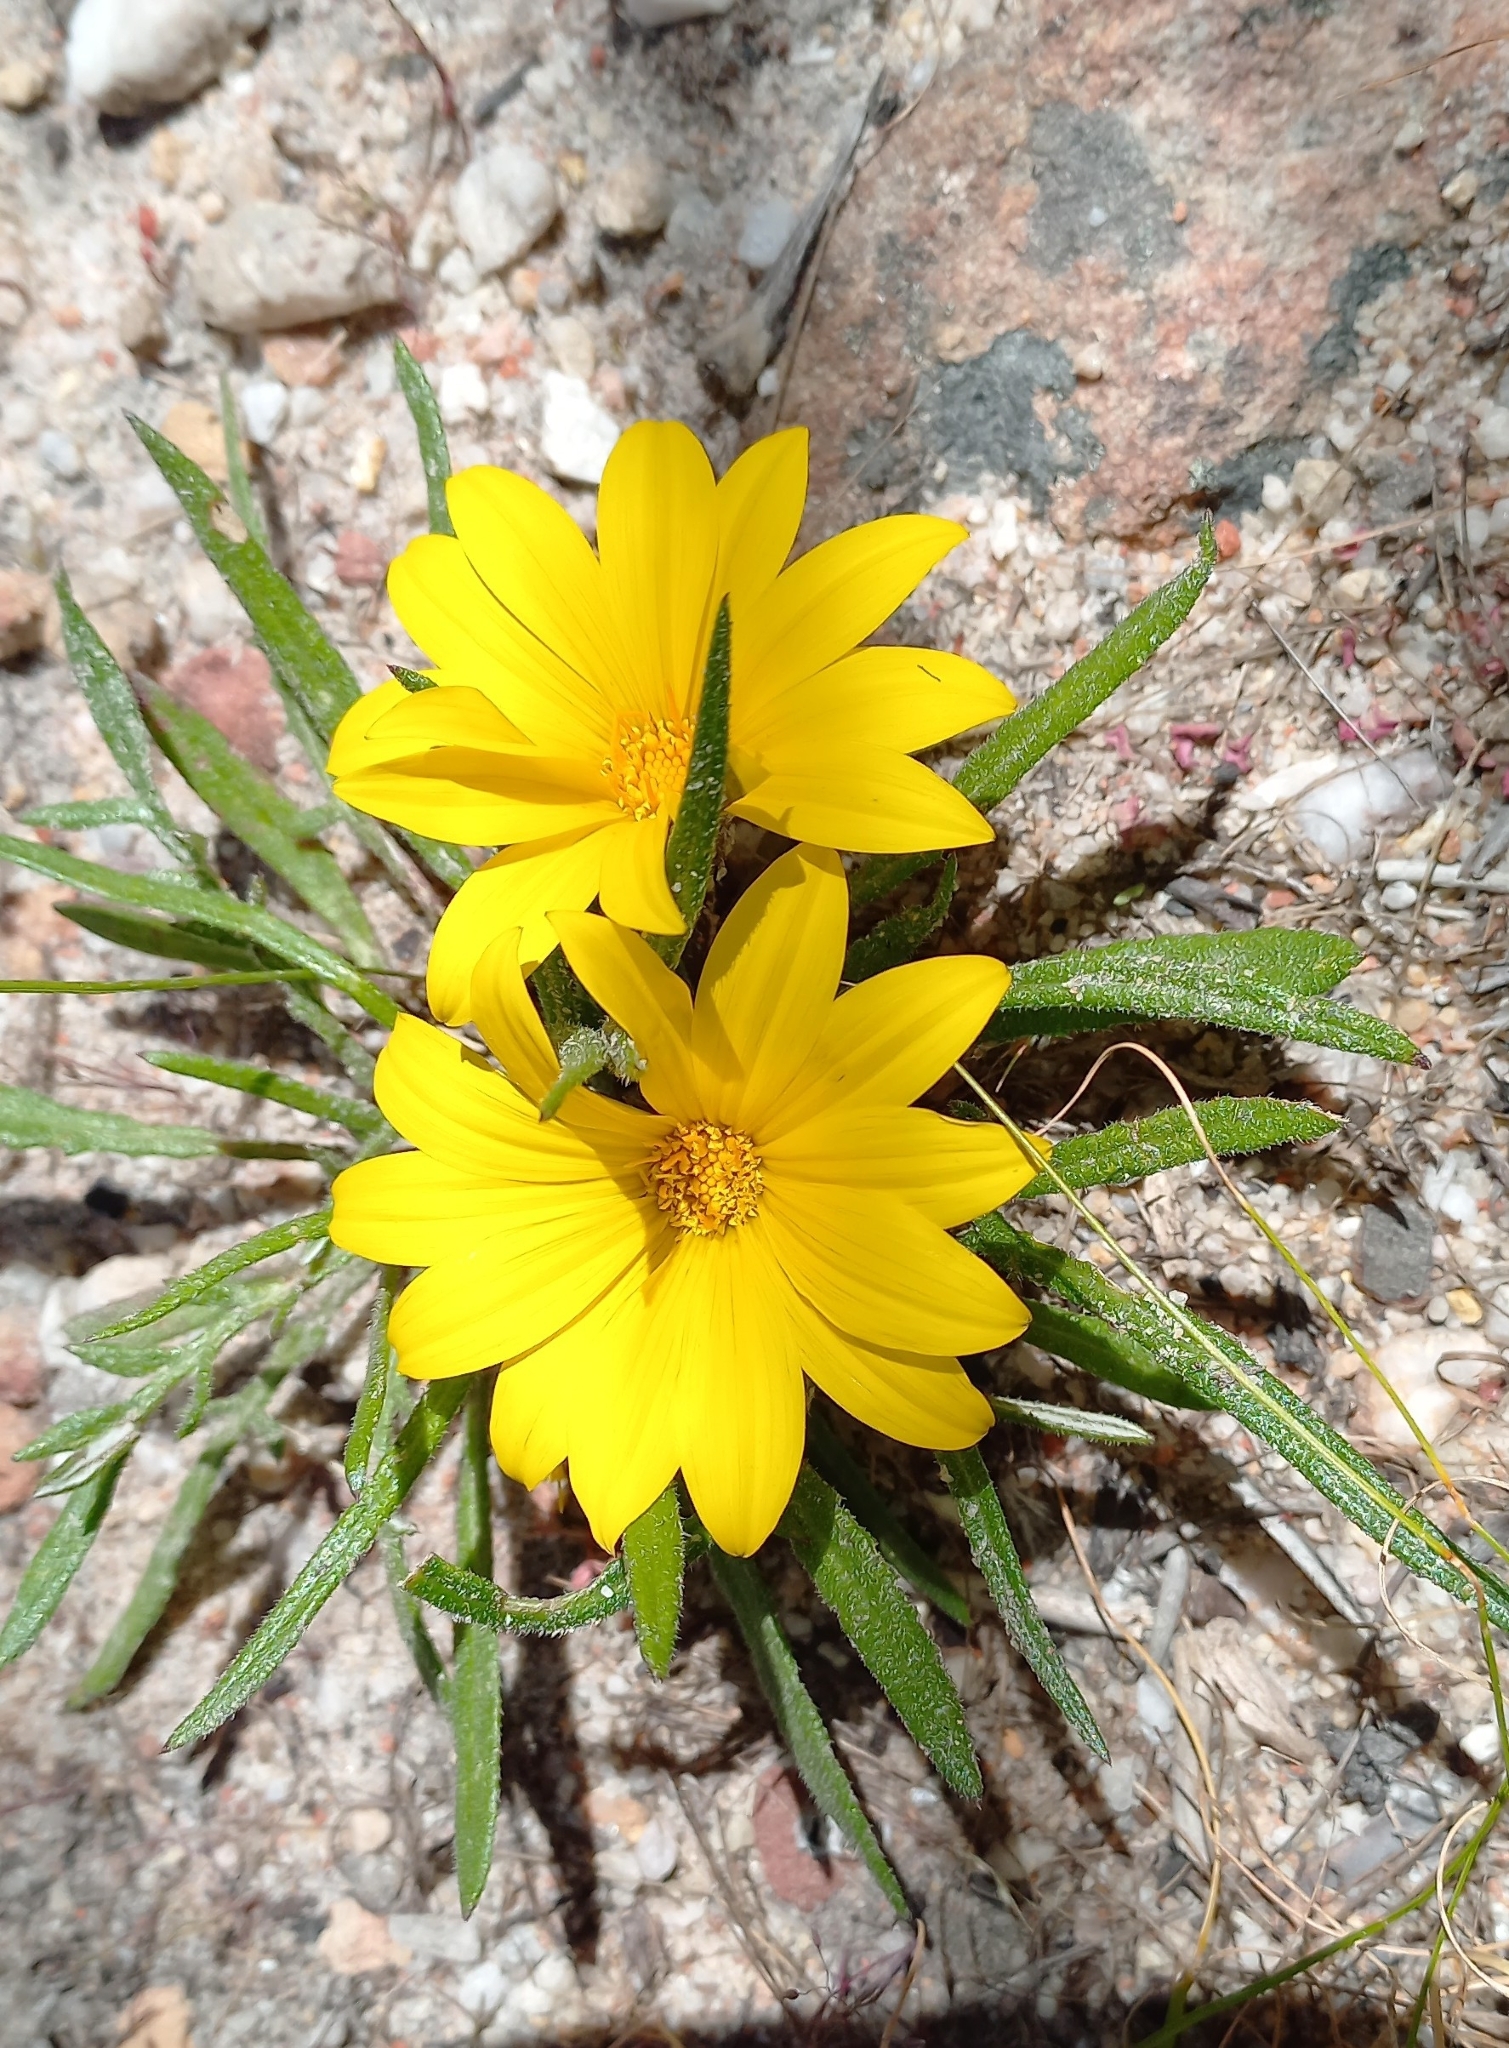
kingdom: Plantae
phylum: Tracheophyta
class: Magnoliopsida
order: Asterales
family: Asteraceae
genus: Gazania
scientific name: Gazania serrata
